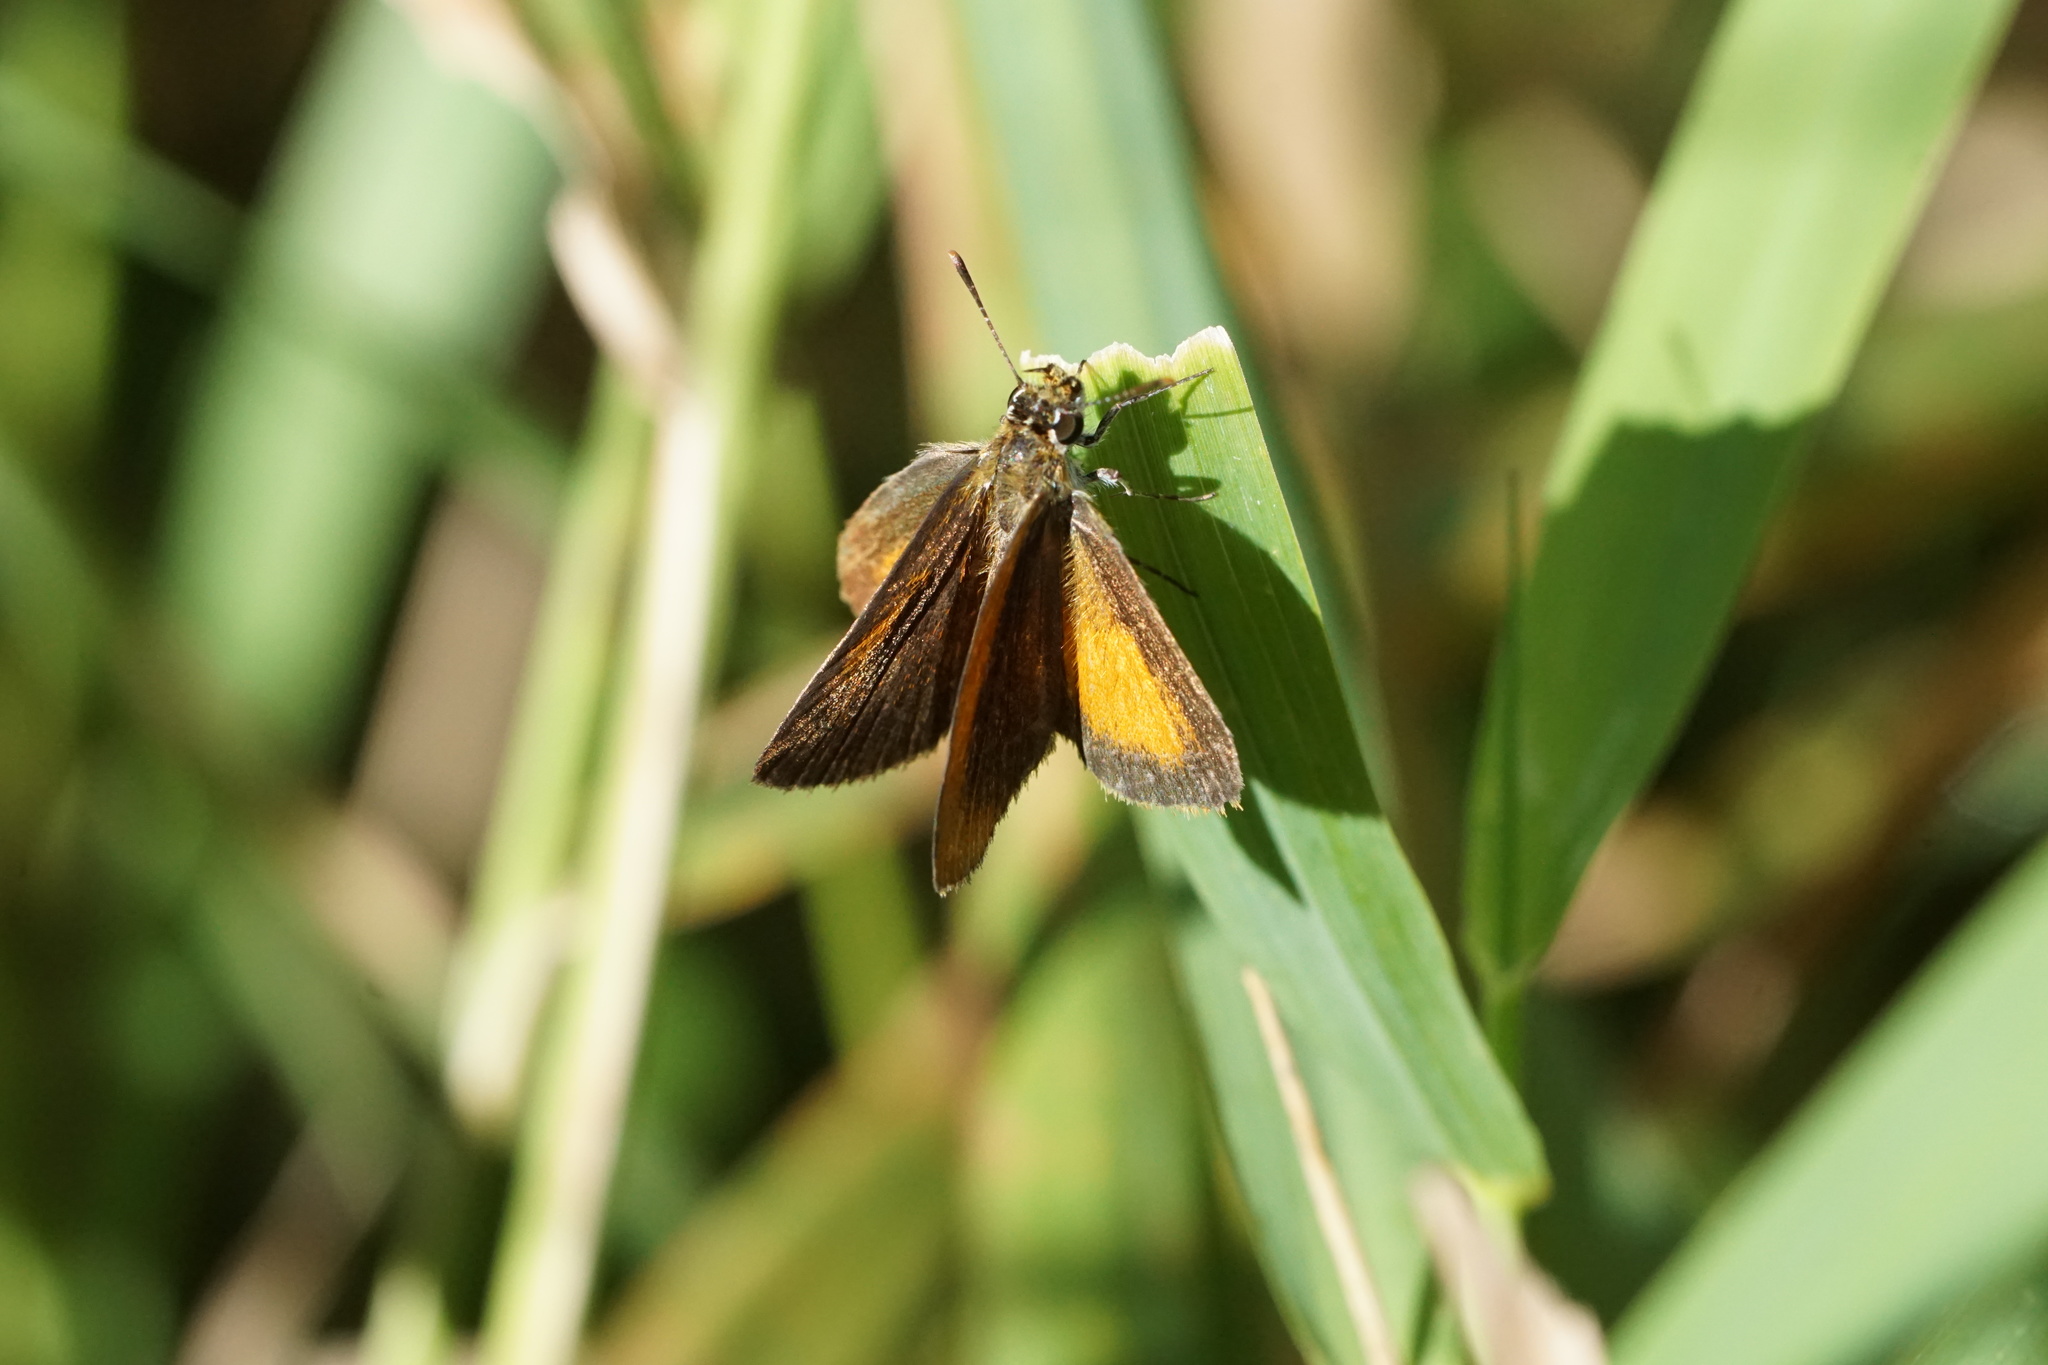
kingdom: Animalia
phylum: Arthropoda
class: Insecta
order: Lepidoptera
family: Hesperiidae
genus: Ancyloxypha
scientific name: Ancyloxypha numitor
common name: Least skipper
